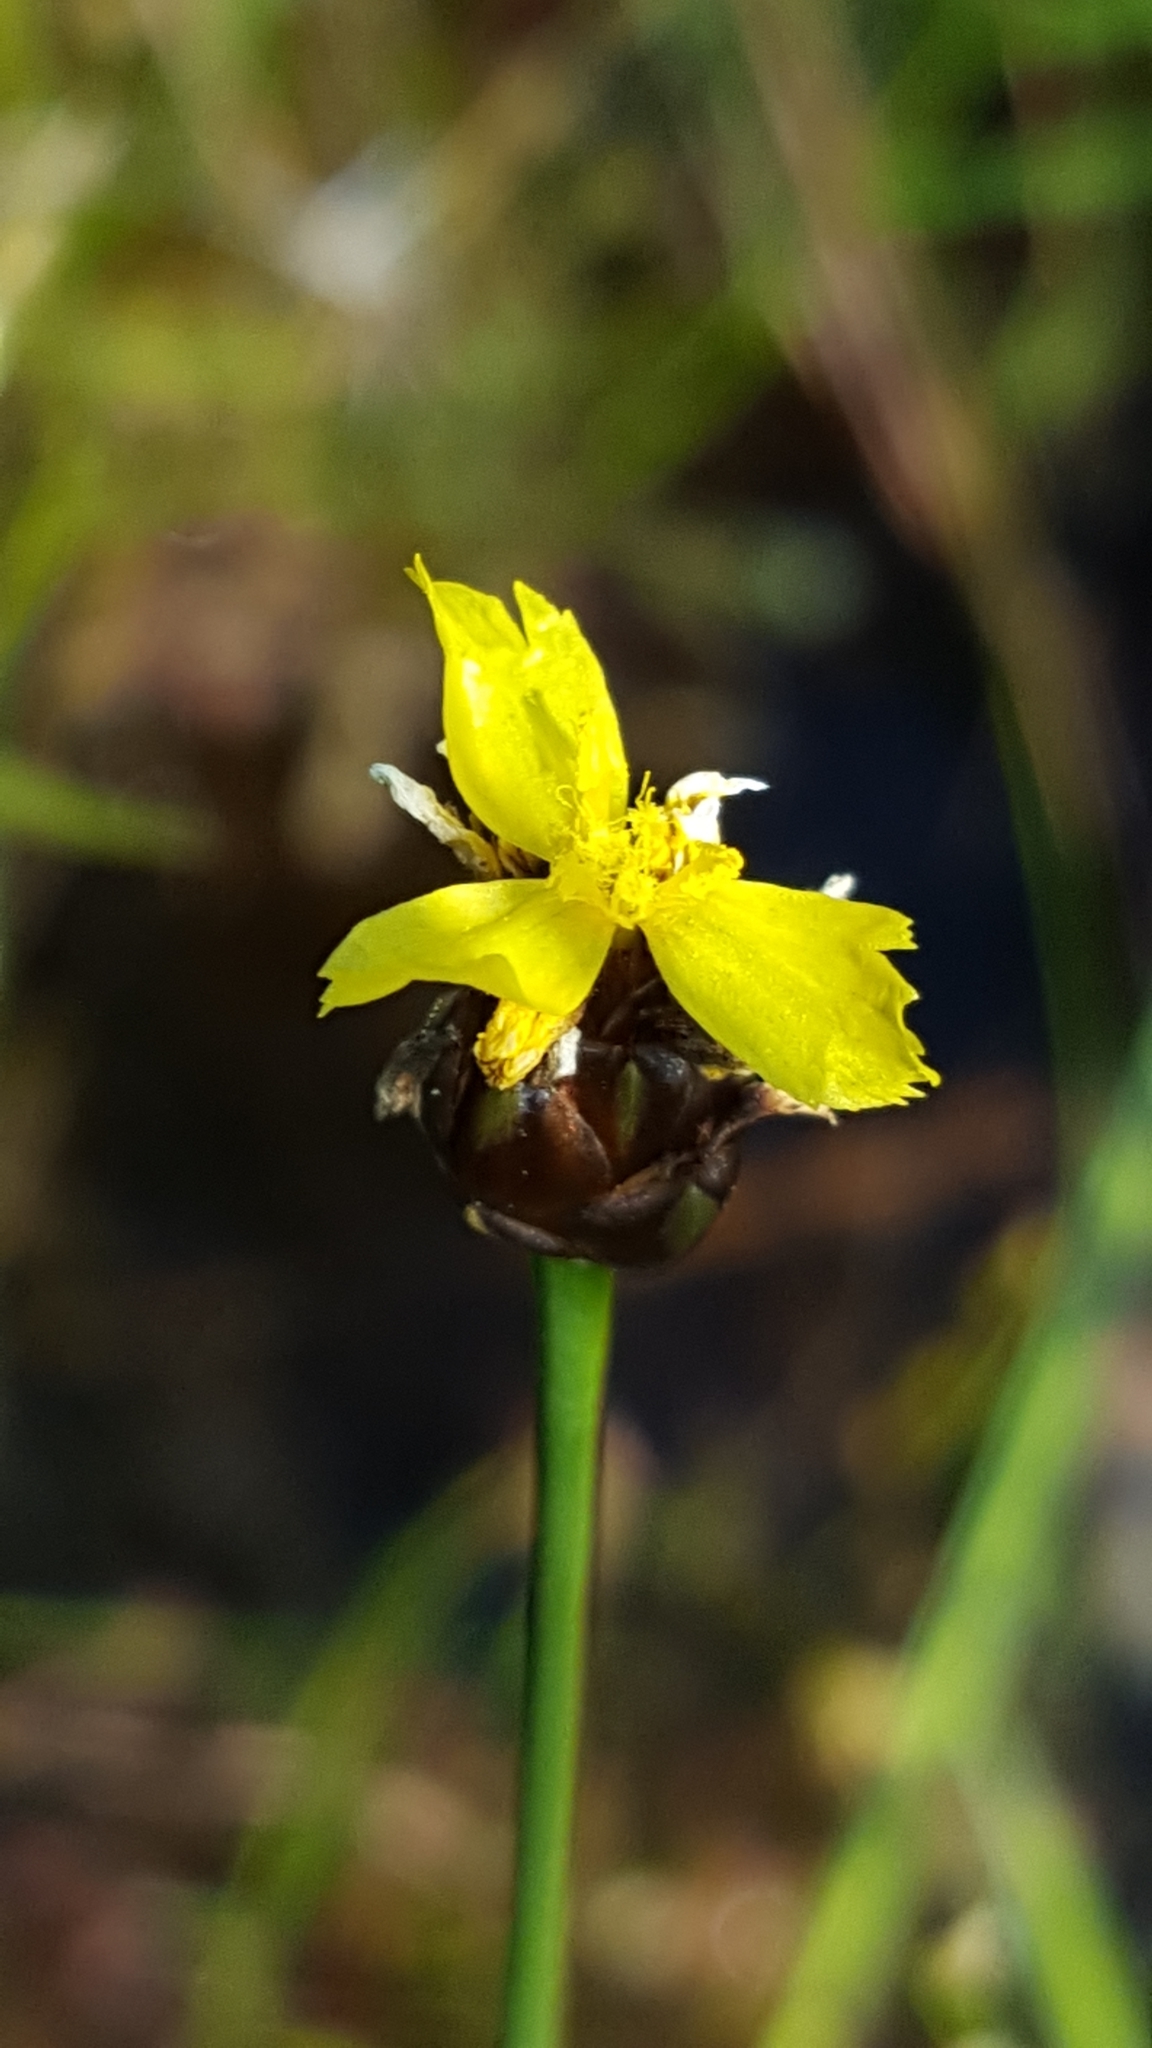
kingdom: Plantae
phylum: Tracheophyta
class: Liliopsida
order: Poales
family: Xyridaceae
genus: Xyris
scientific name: Xyris montana
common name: Northern yellow-eyed-grass
